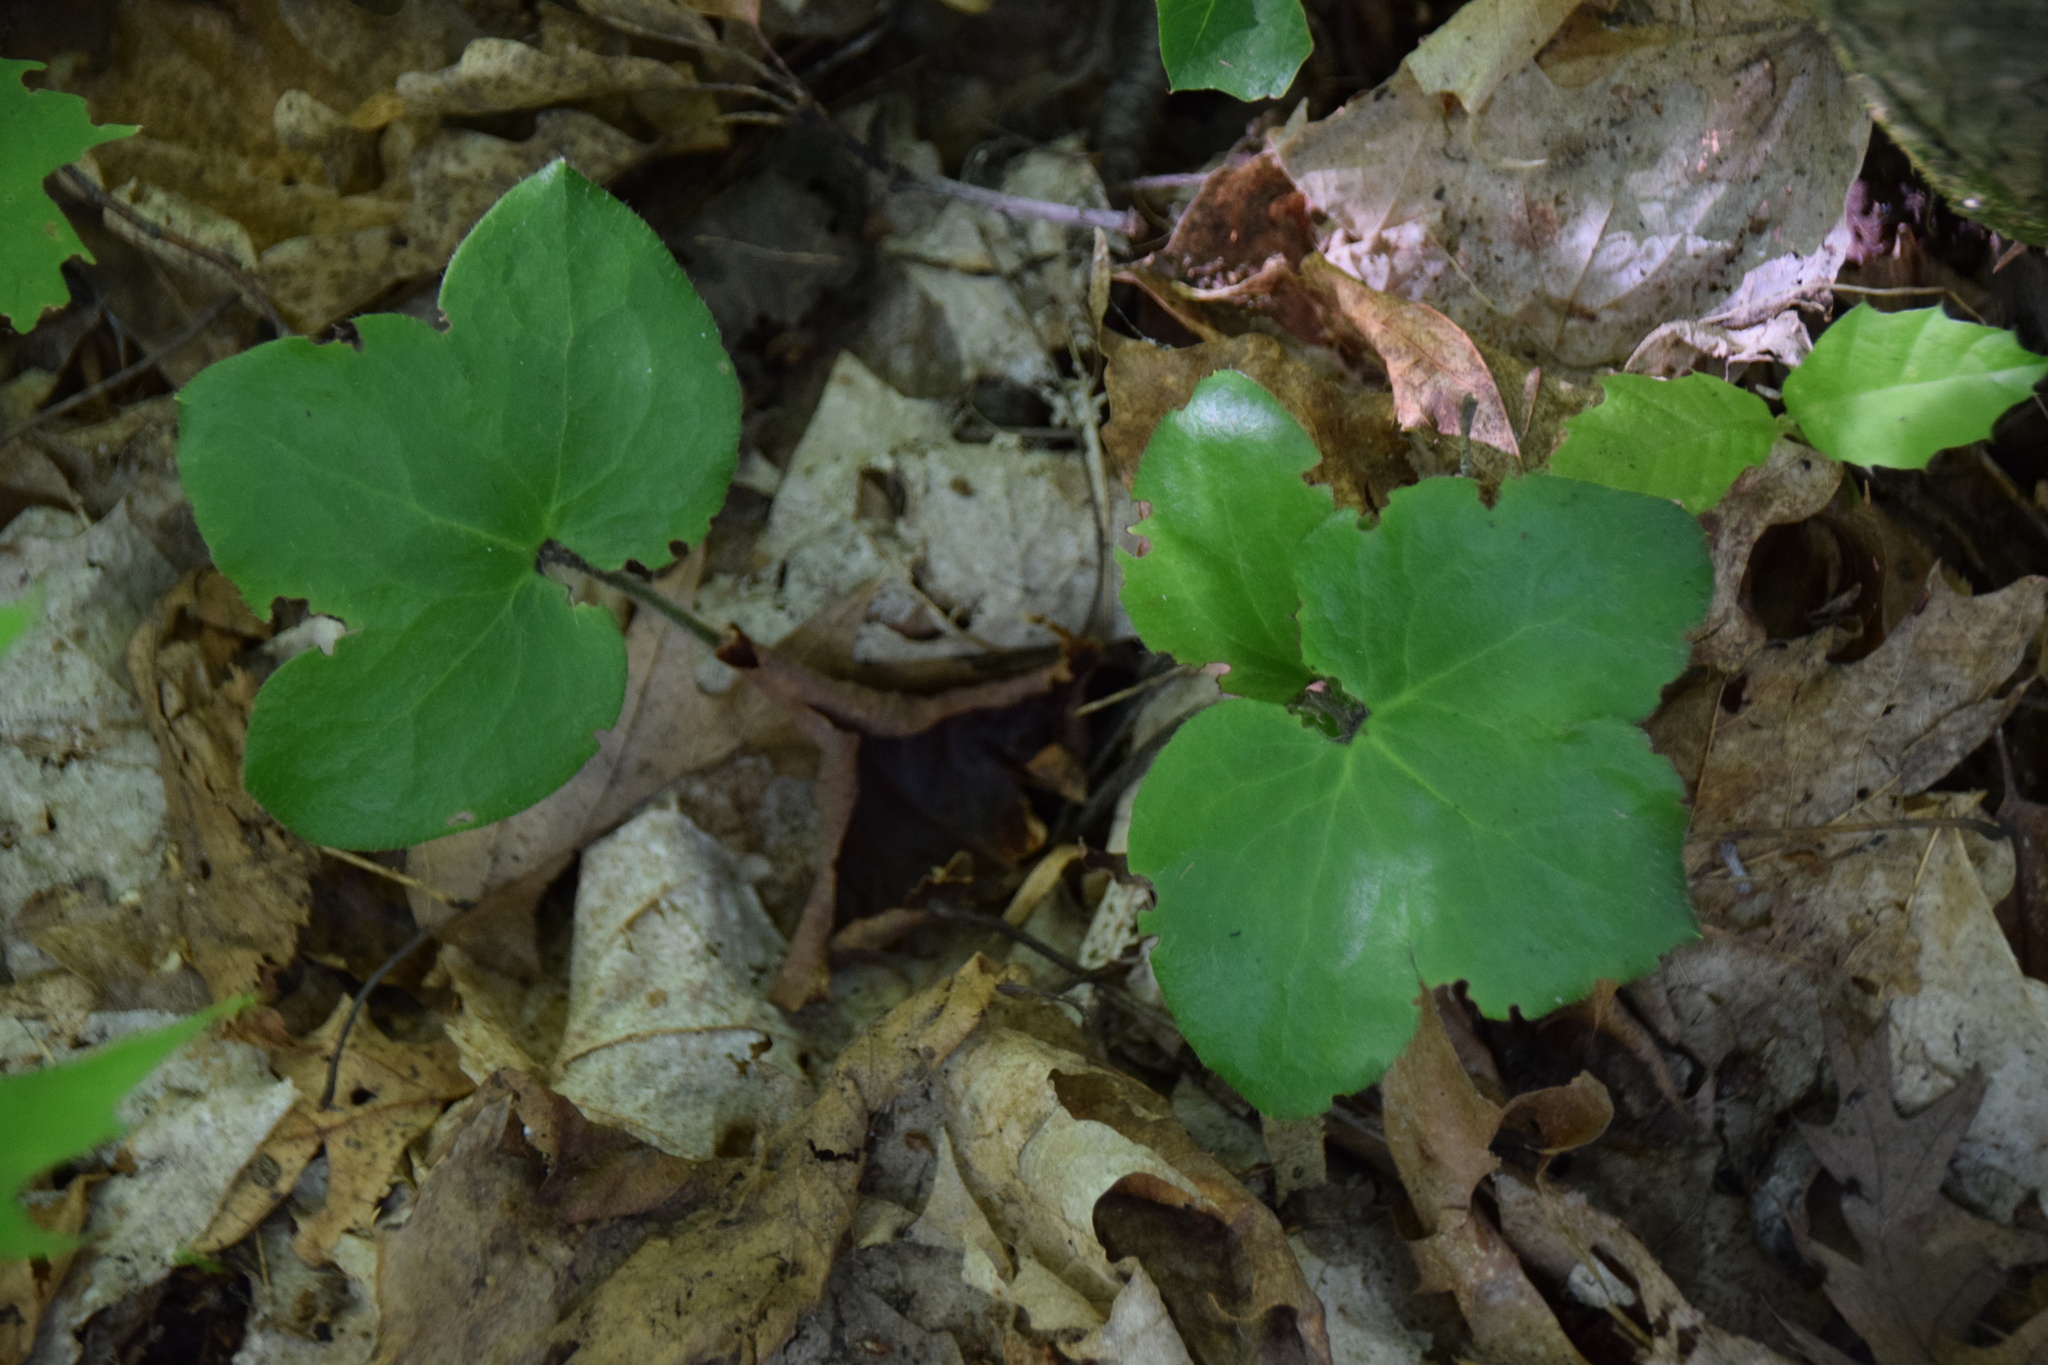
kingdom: Plantae
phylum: Tracheophyta
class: Magnoliopsida
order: Ranunculales
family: Ranunculaceae
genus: Hepatica
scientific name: Hepatica americana
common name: American hepatica
